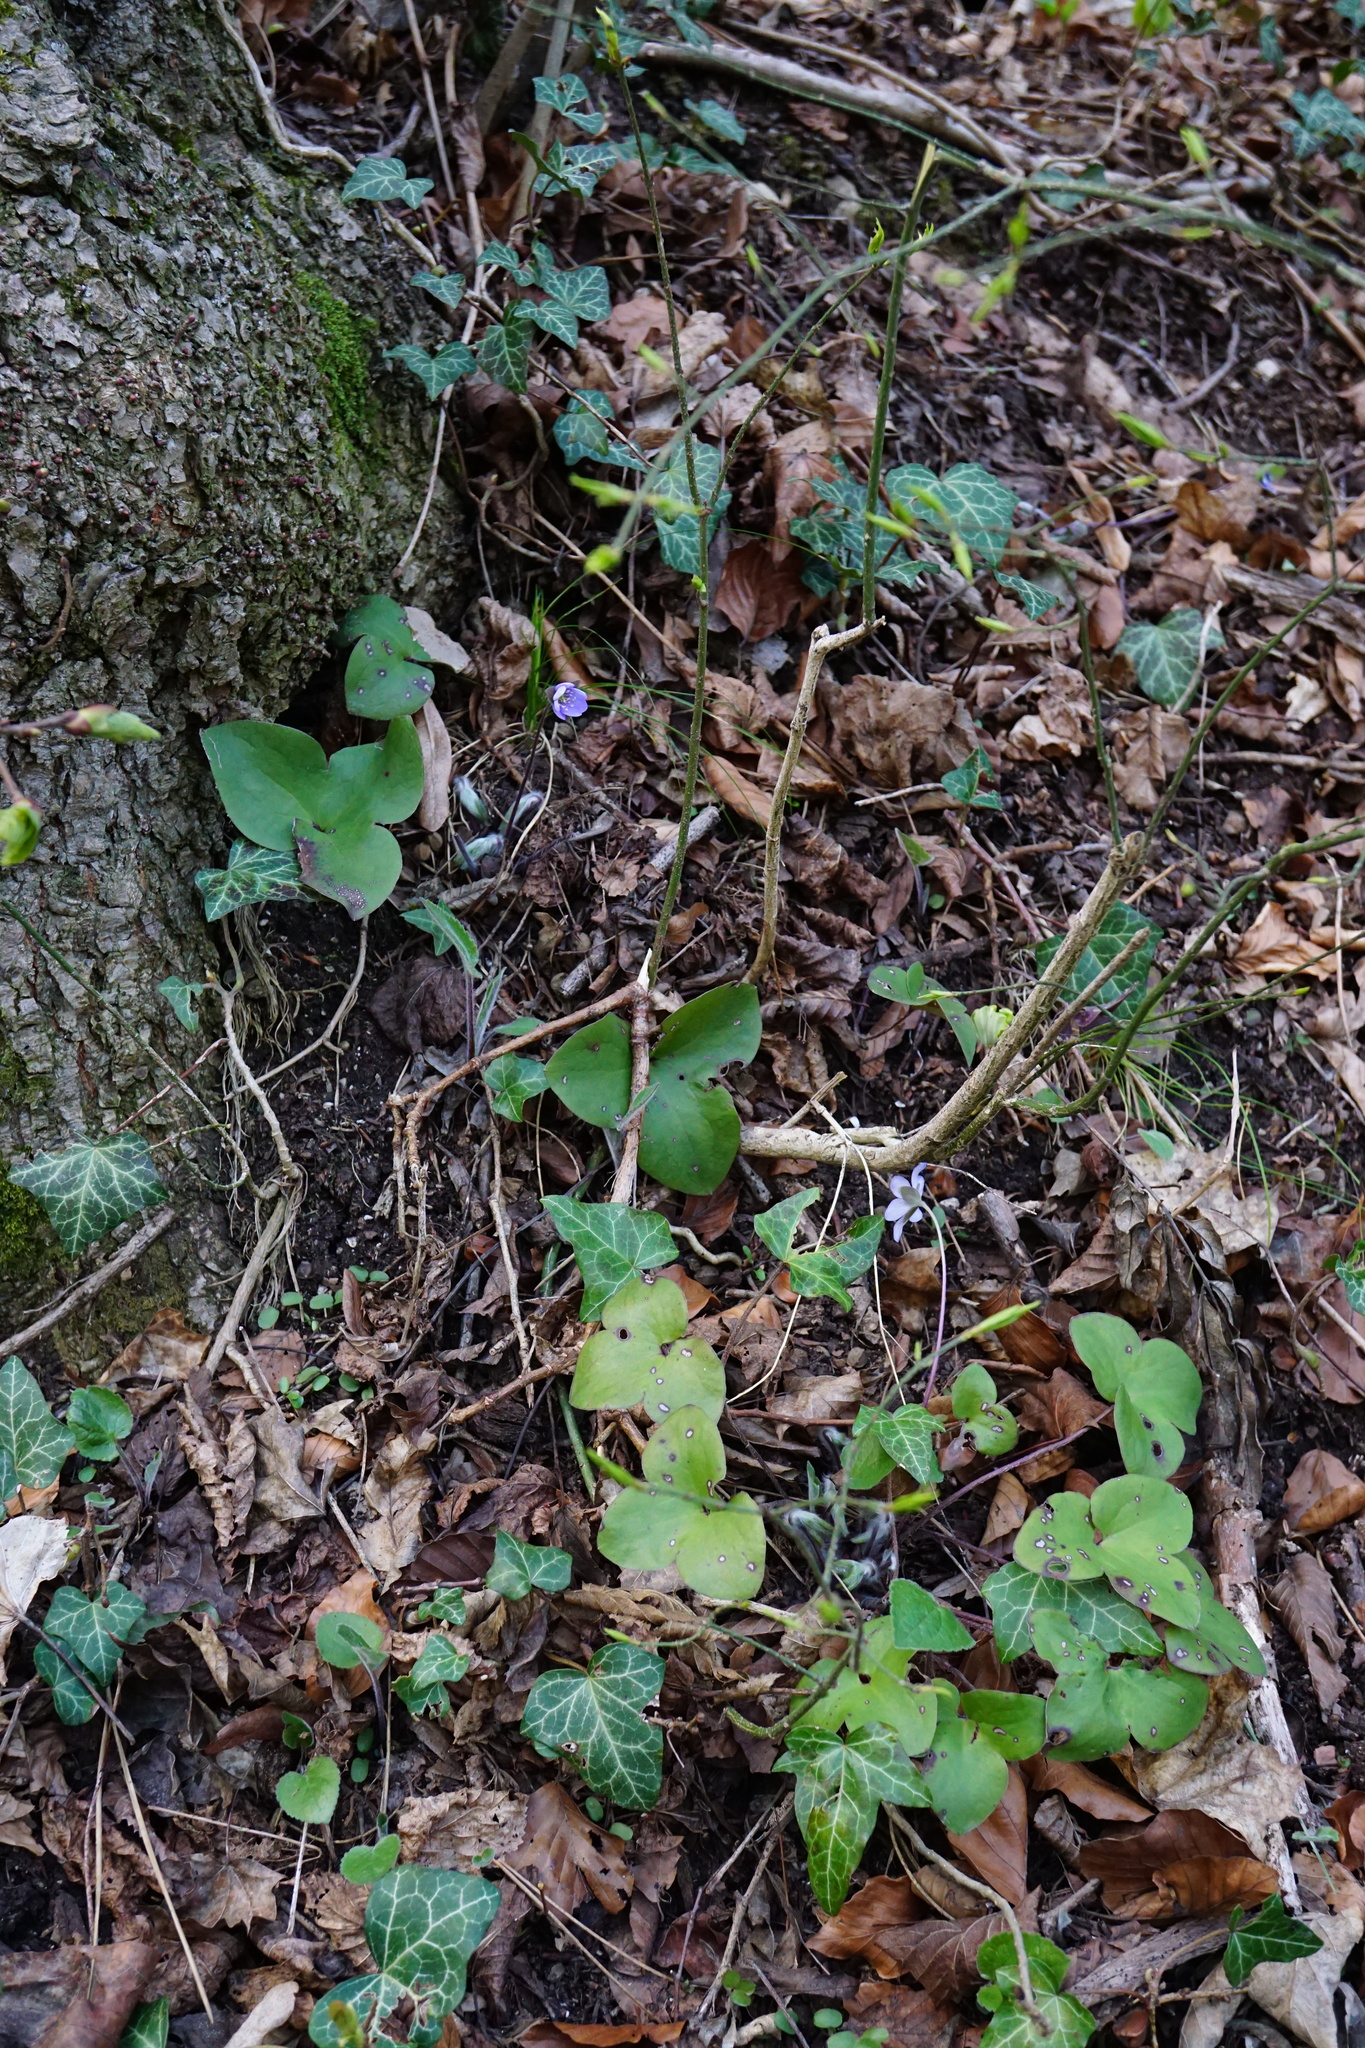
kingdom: Plantae
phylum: Tracheophyta
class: Magnoliopsida
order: Ranunculales
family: Ranunculaceae
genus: Hepatica
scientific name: Hepatica nobilis
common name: Liverleaf
